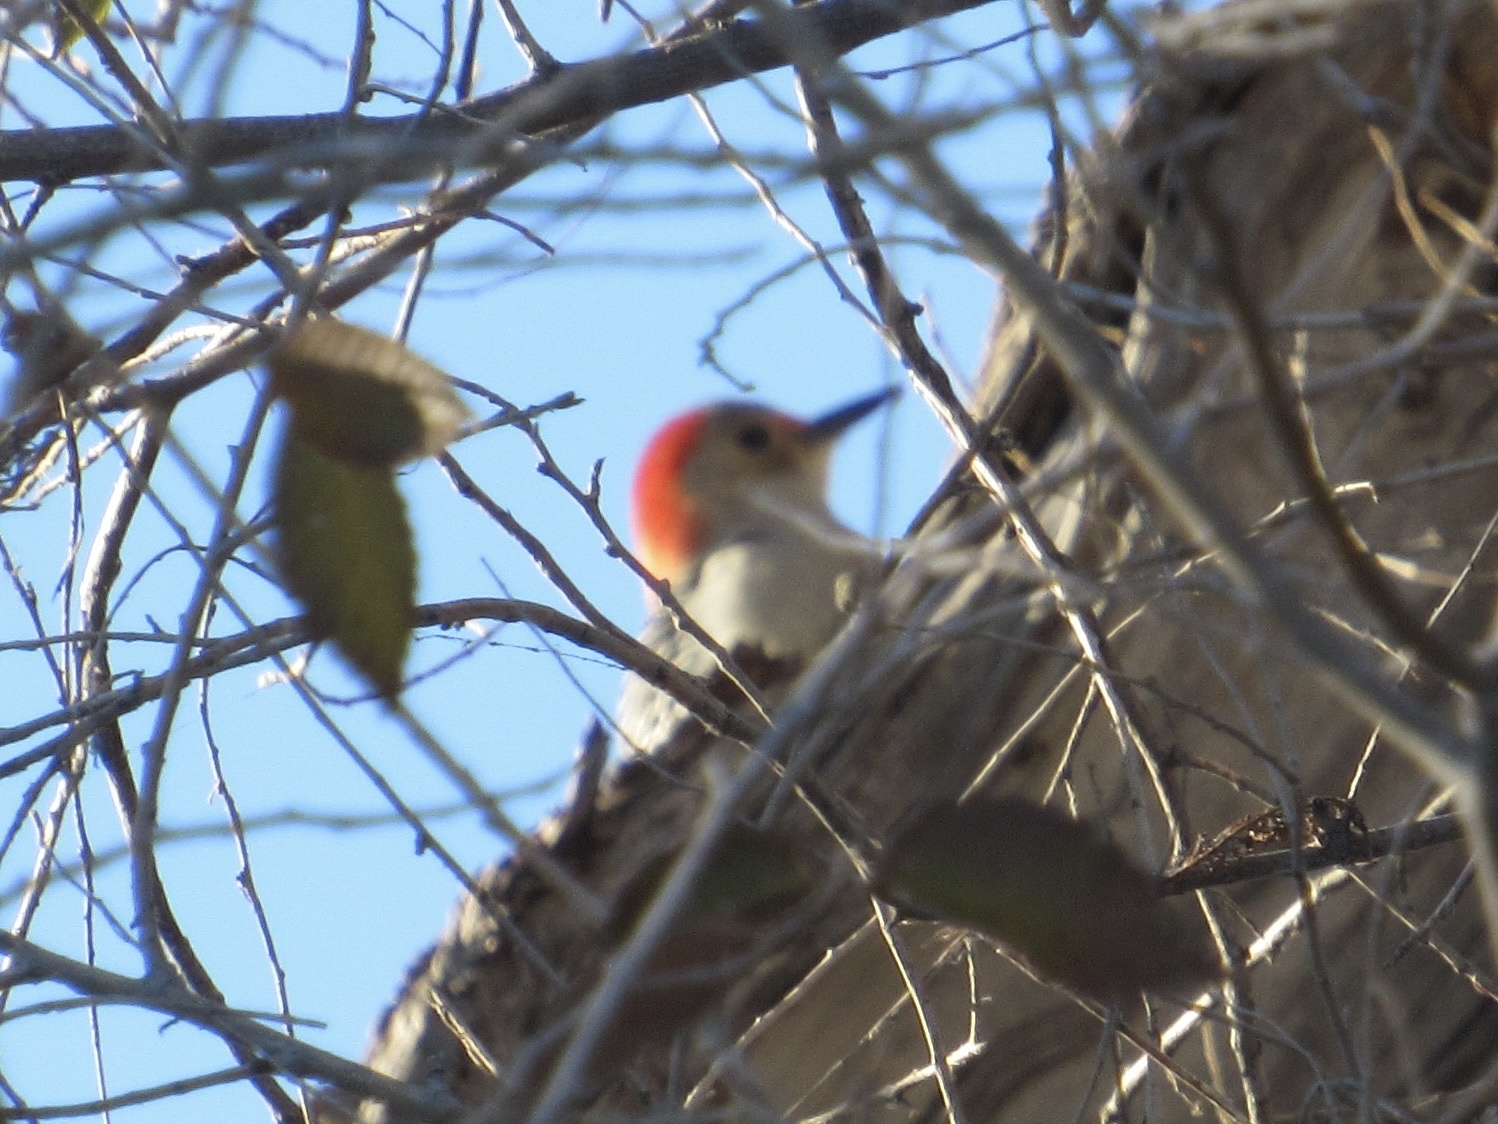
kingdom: Animalia
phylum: Chordata
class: Aves
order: Piciformes
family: Picidae
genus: Melanerpes
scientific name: Melanerpes carolinus
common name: Red-bellied woodpecker
